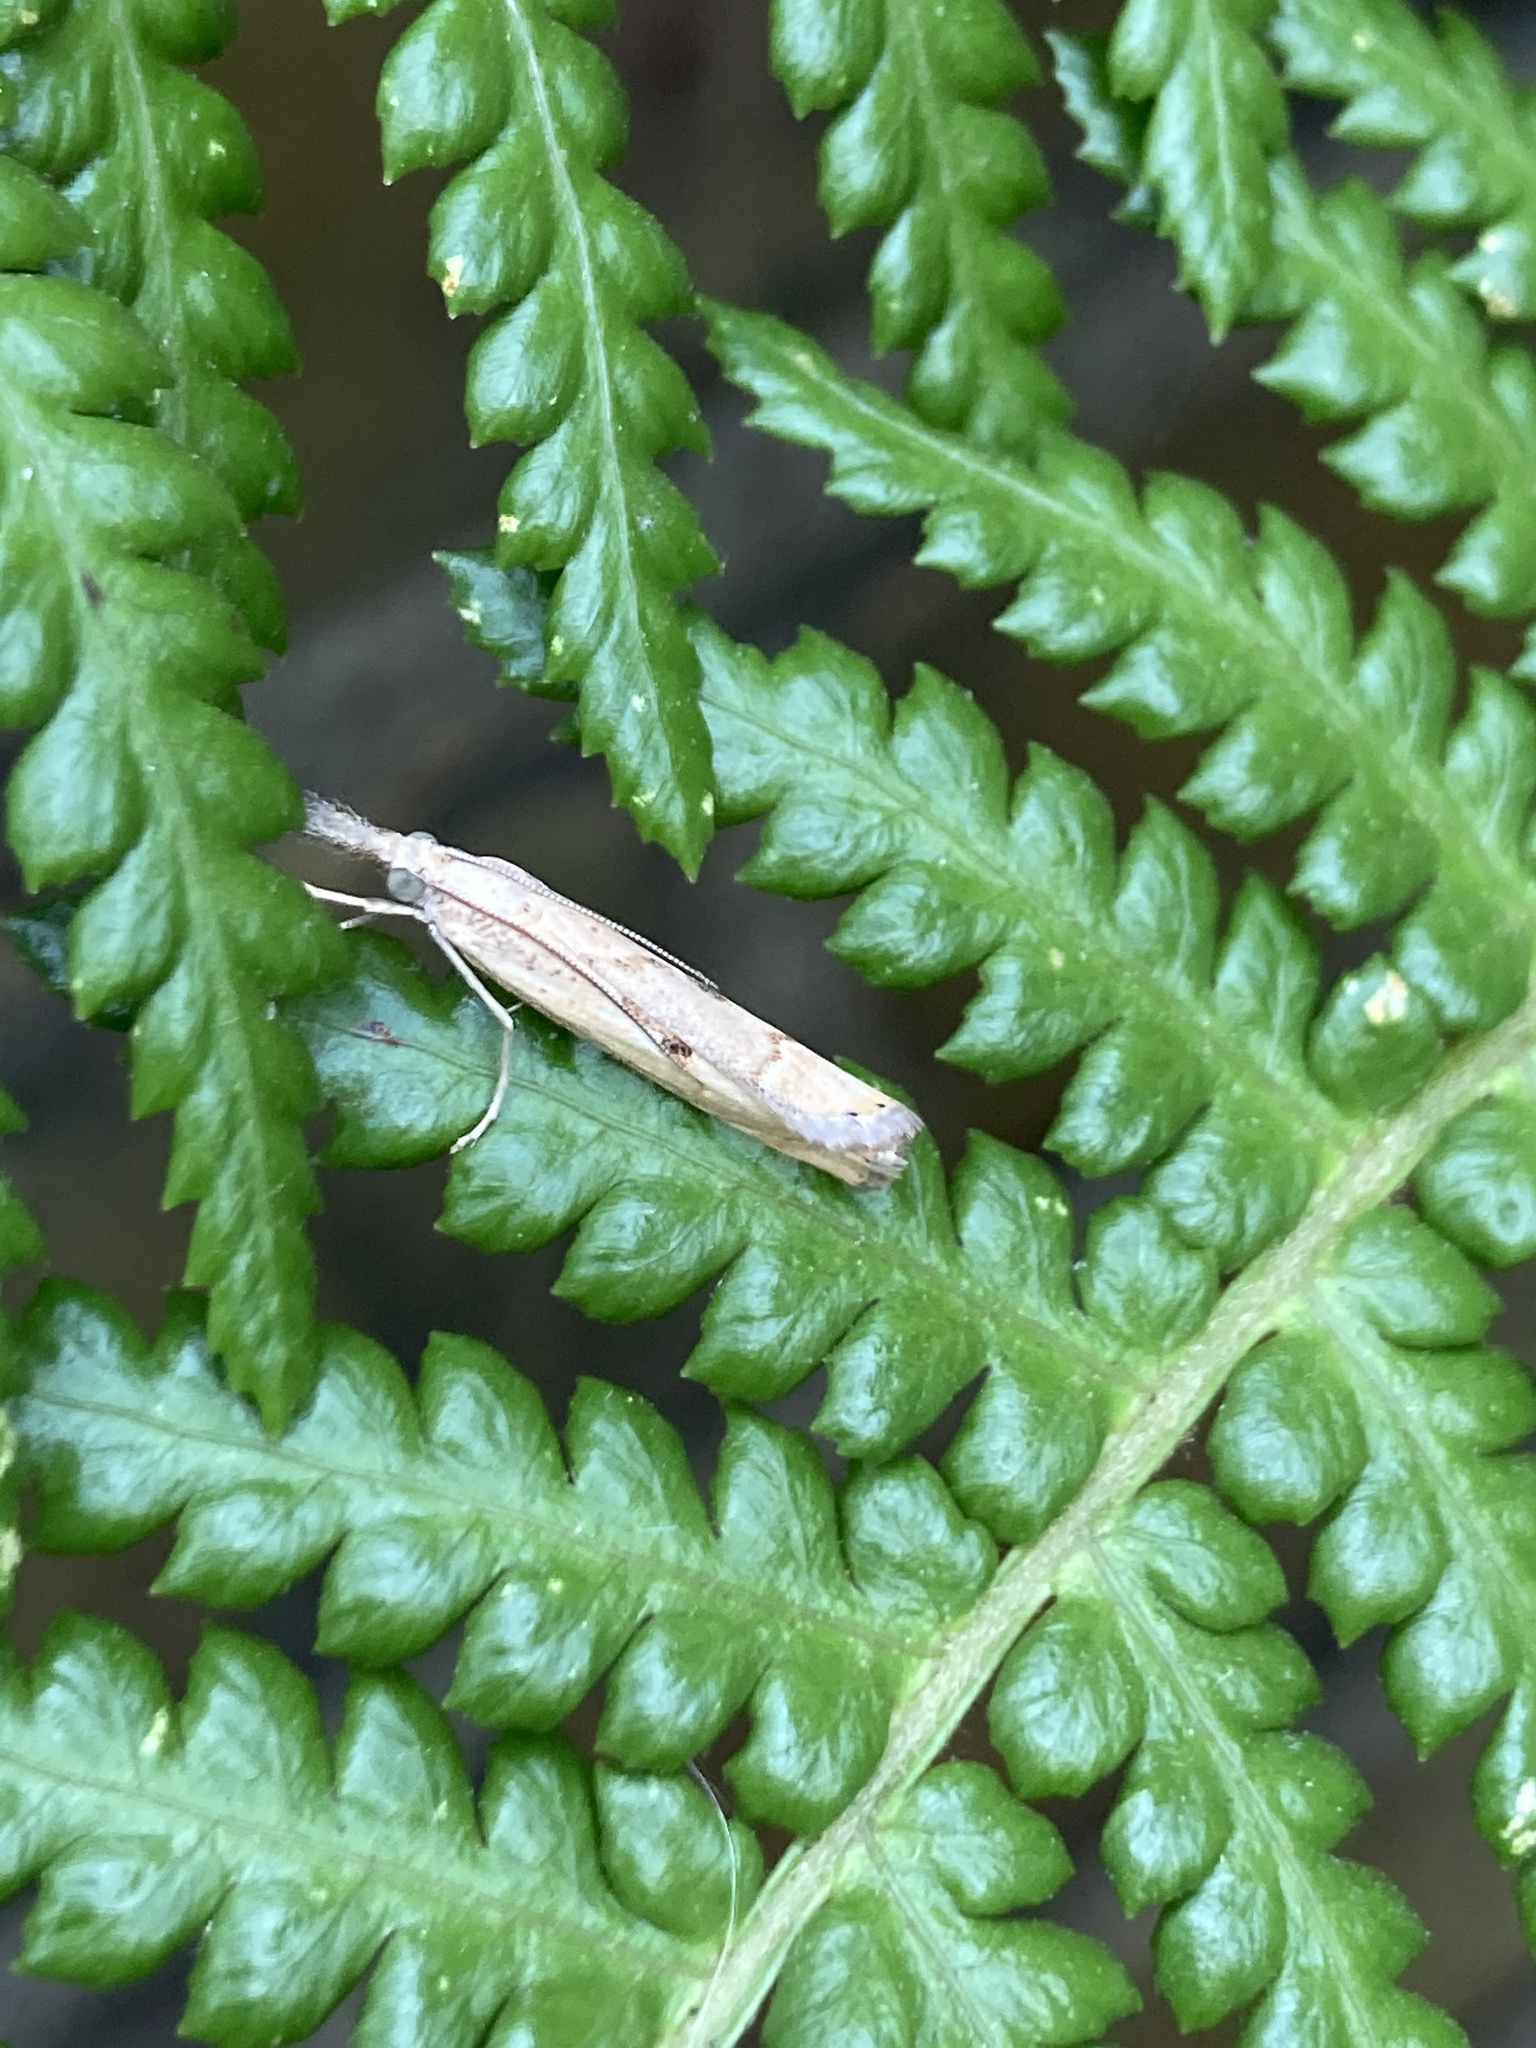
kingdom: Animalia
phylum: Arthropoda
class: Insecta
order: Lepidoptera
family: Crambidae
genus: Agriphila
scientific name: Agriphila inquinatella
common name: Barred grass-veneer
